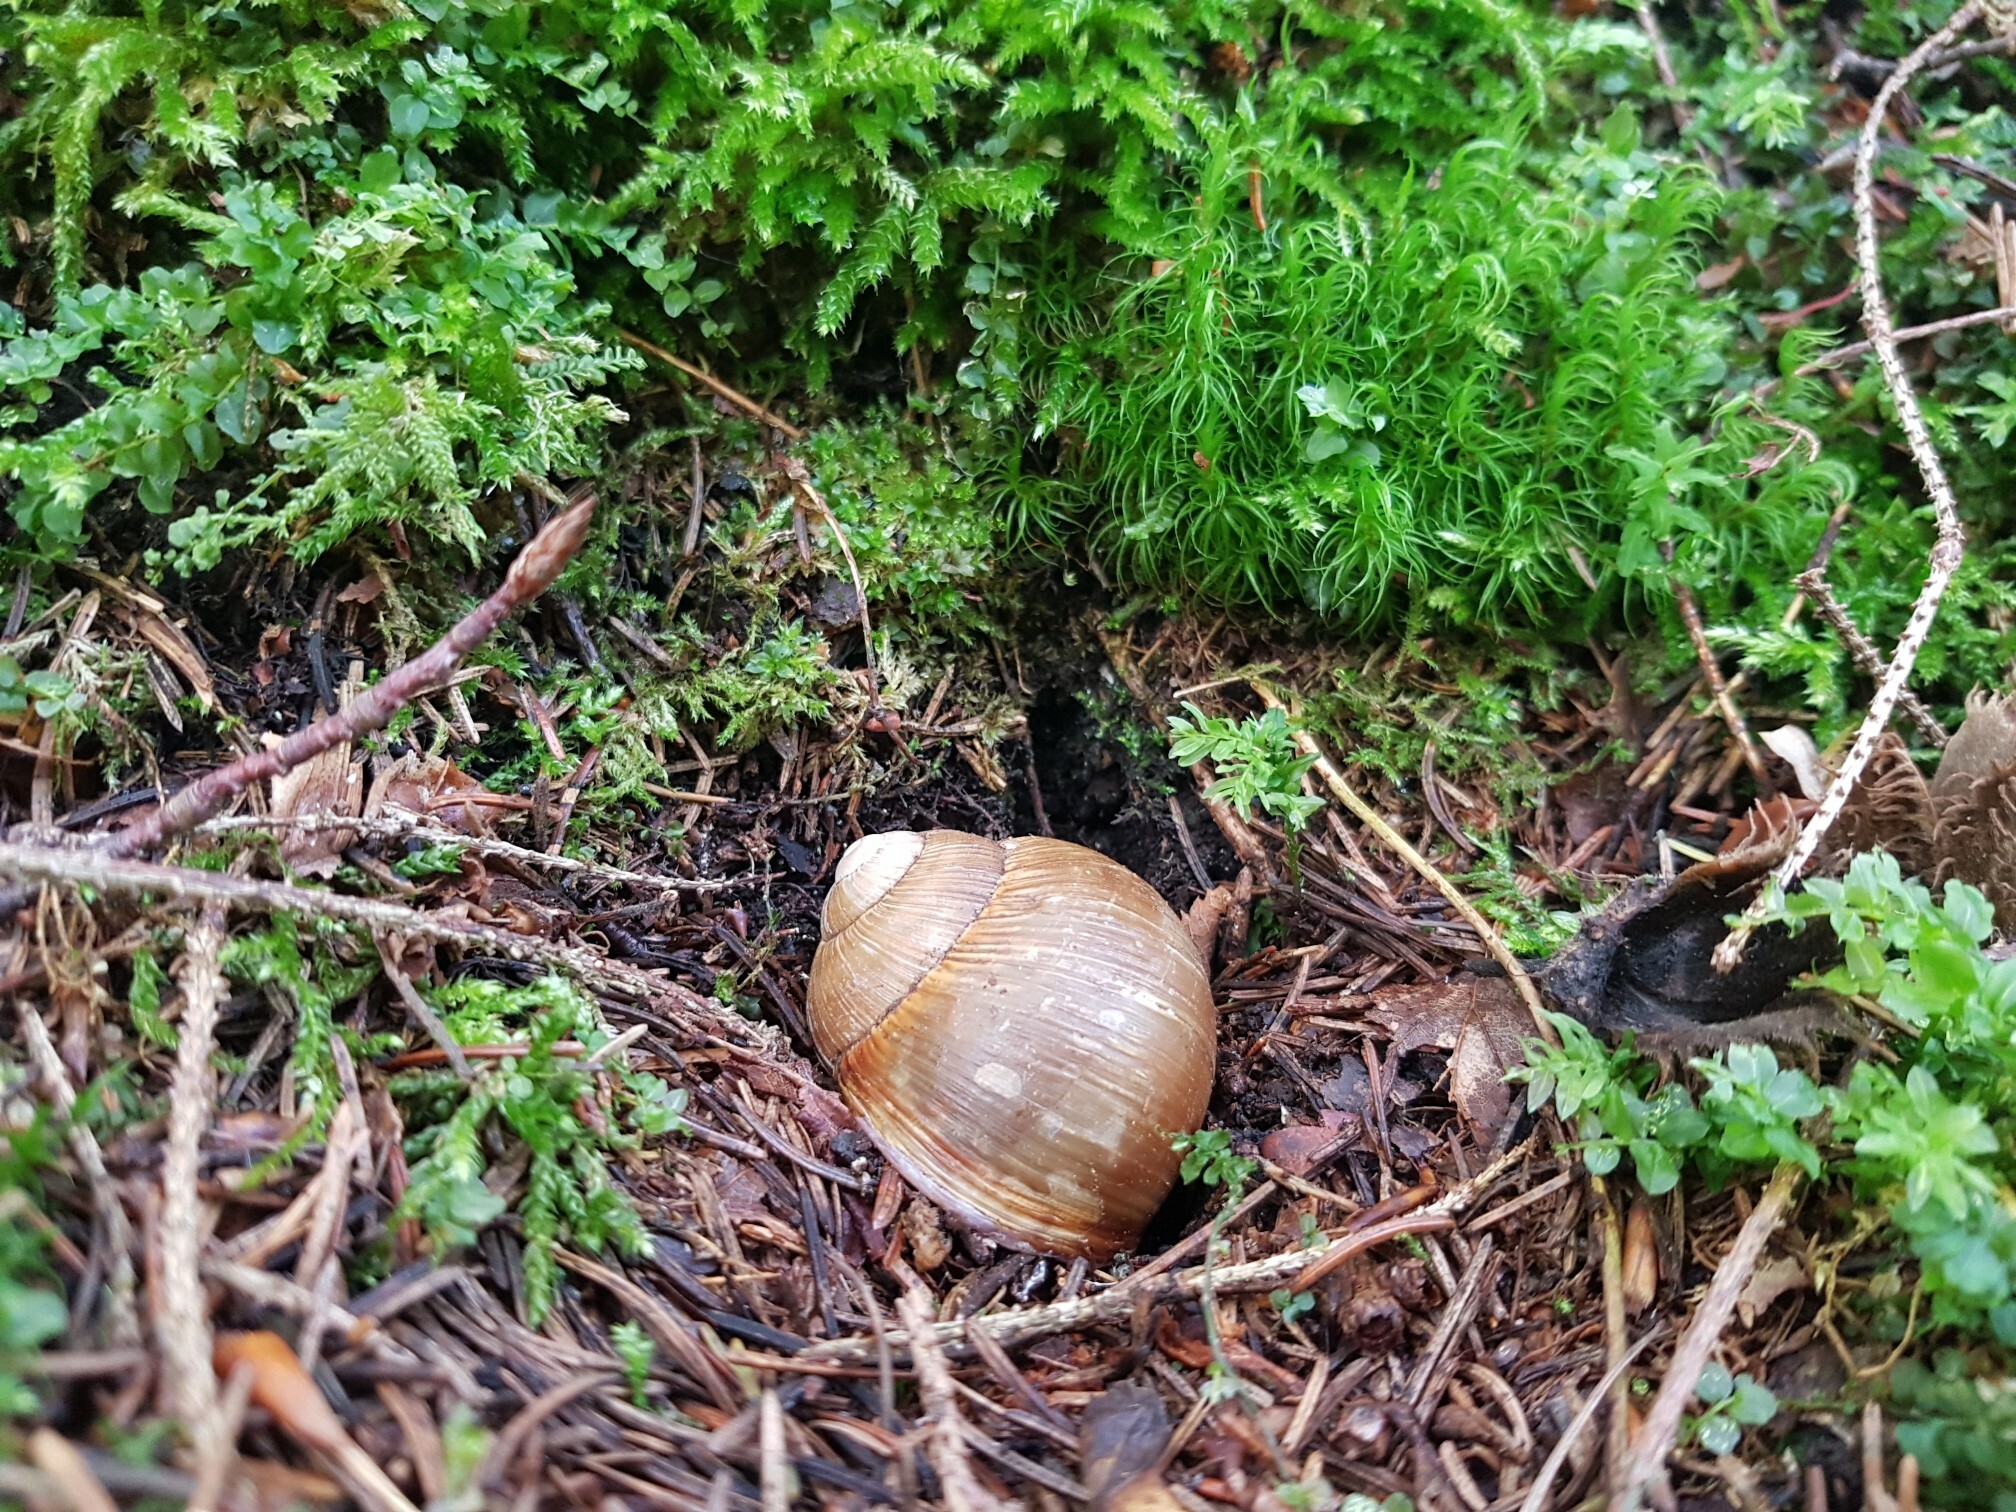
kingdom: Animalia
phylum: Mollusca
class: Gastropoda
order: Stylommatophora
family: Helicidae
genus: Helix
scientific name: Helix pomatia
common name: Roman snail
